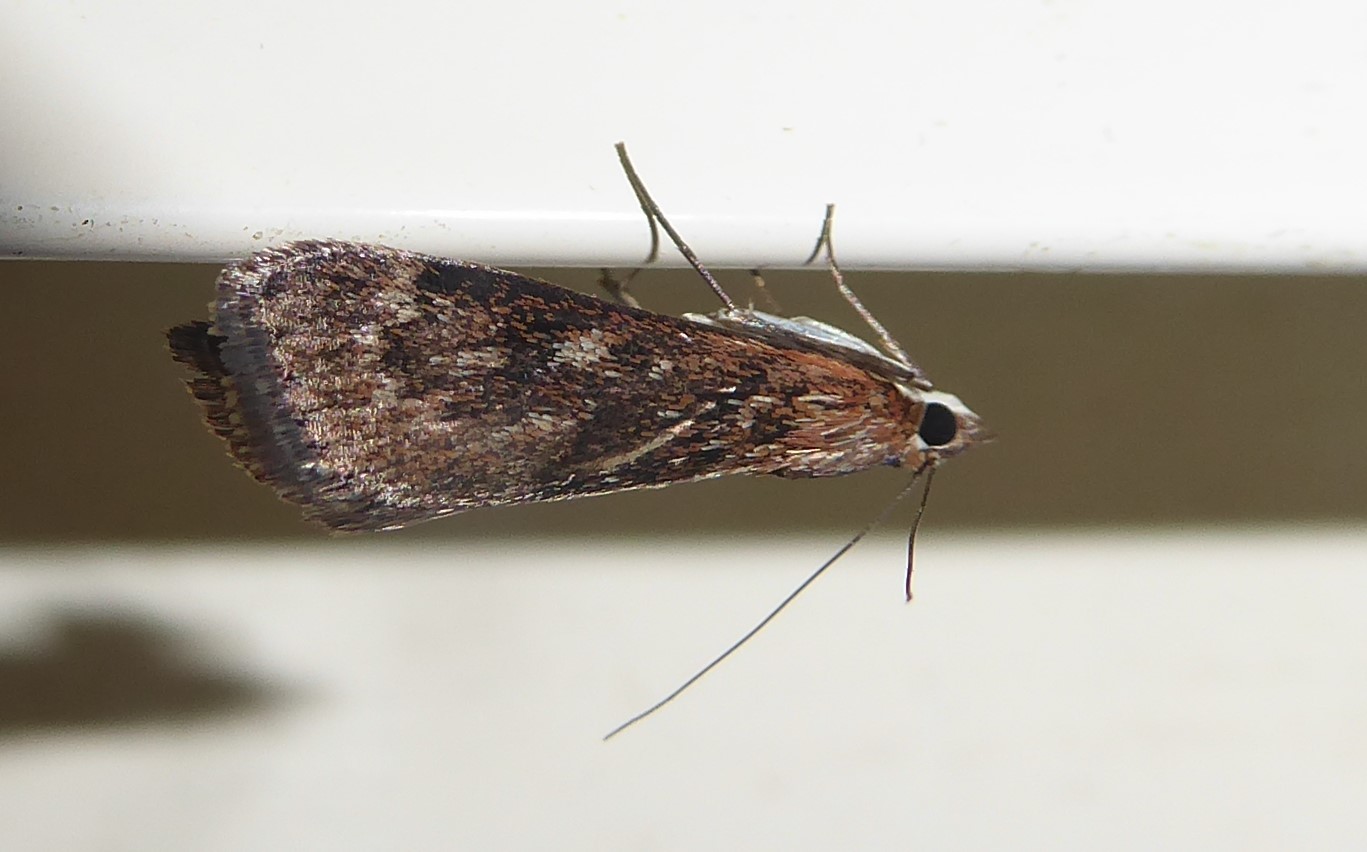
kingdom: Animalia
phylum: Arthropoda
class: Insecta
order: Lepidoptera
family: Crambidae
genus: Achyra
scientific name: Achyra affinitalis
